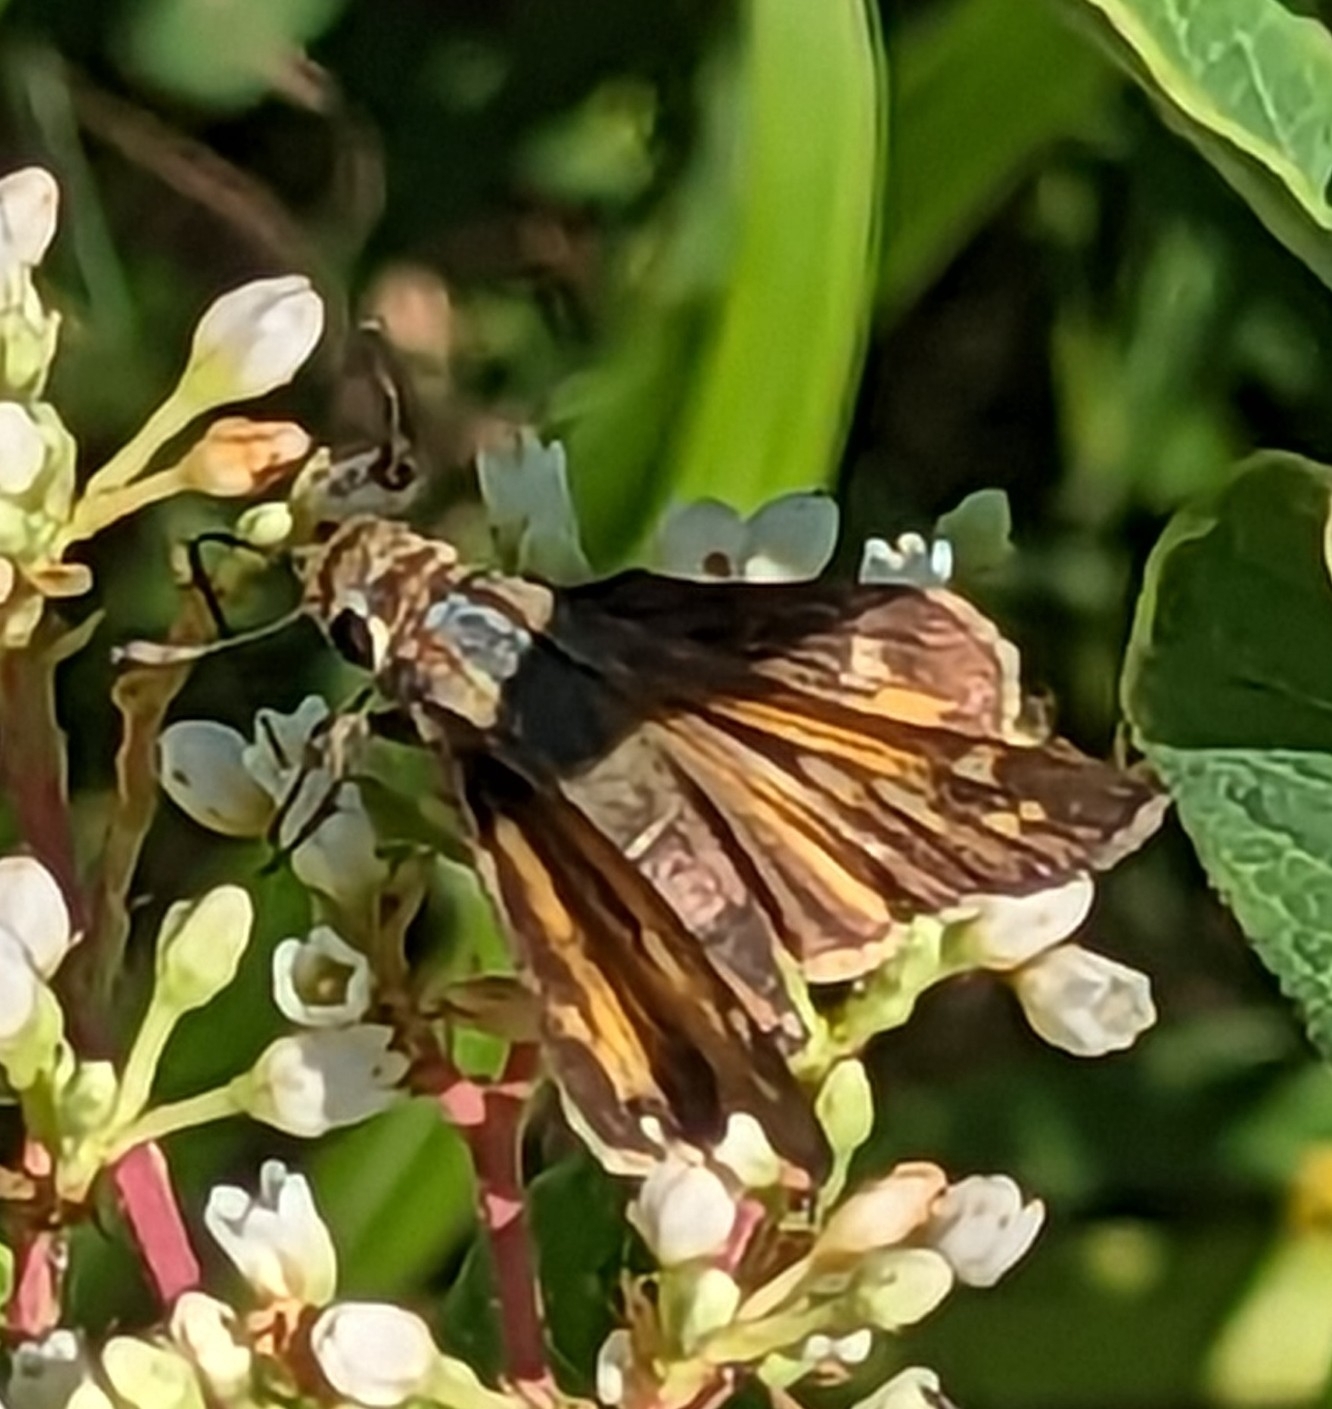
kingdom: Animalia
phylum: Arthropoda
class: Insecta
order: Lepidoptera
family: Hesperiidae
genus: Atalopedes
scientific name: Atalopedes
